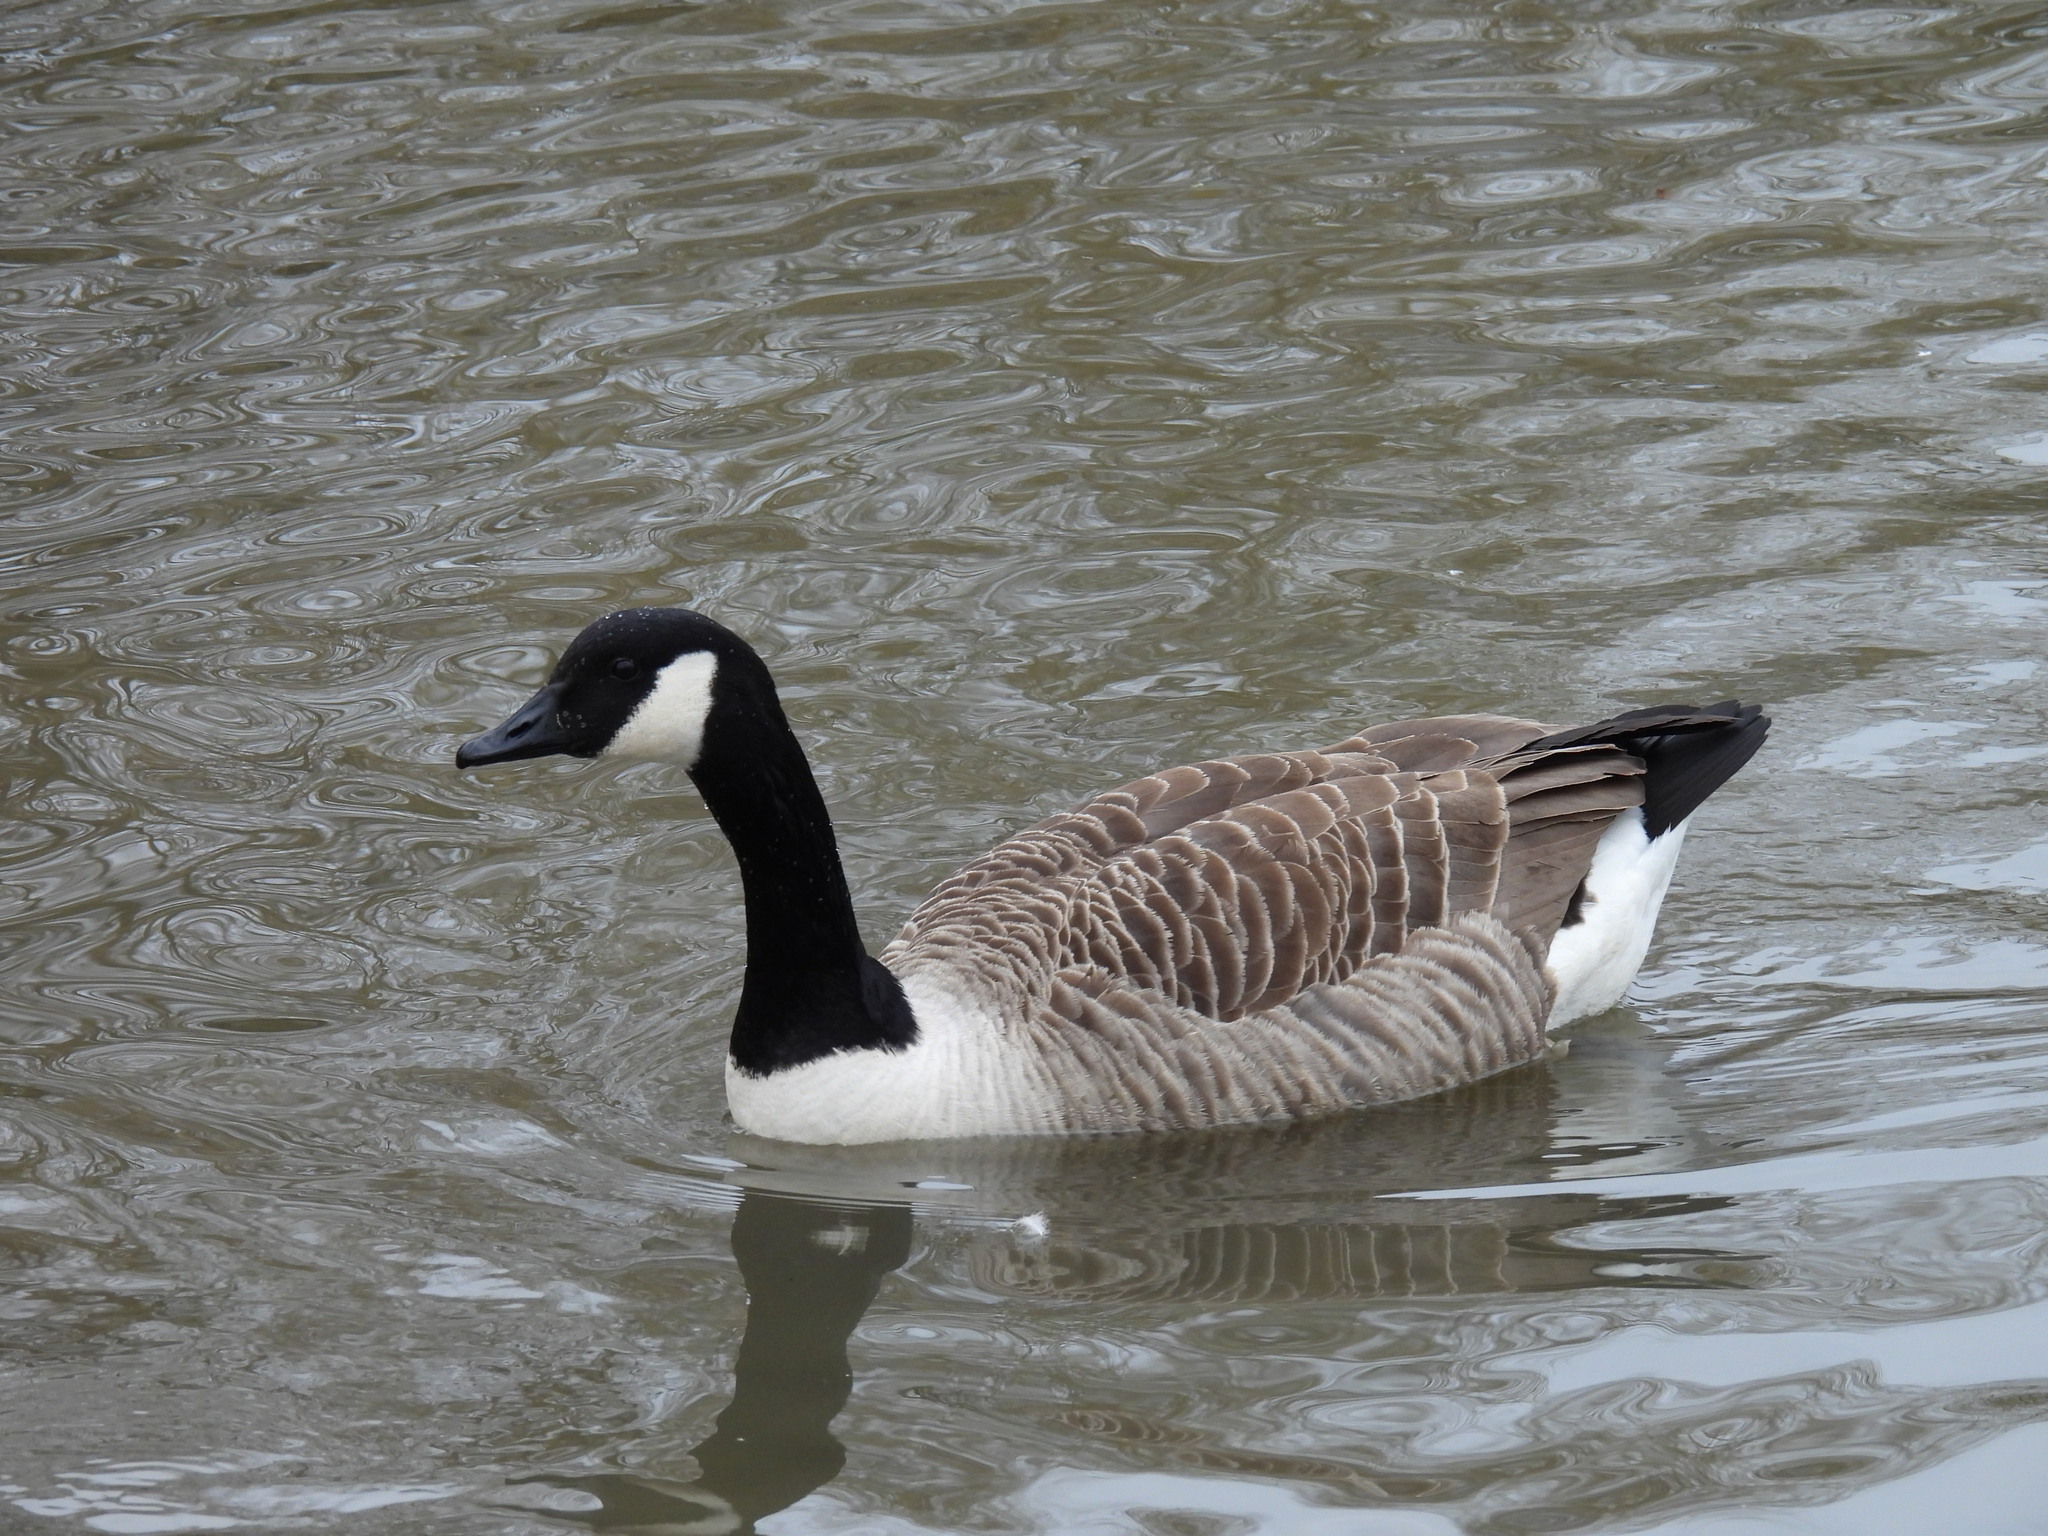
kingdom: Animalia
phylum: Chordata
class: Aves
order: Anseriformes
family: Anatidae
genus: Branta
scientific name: Branta canadensis
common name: Canada goose
